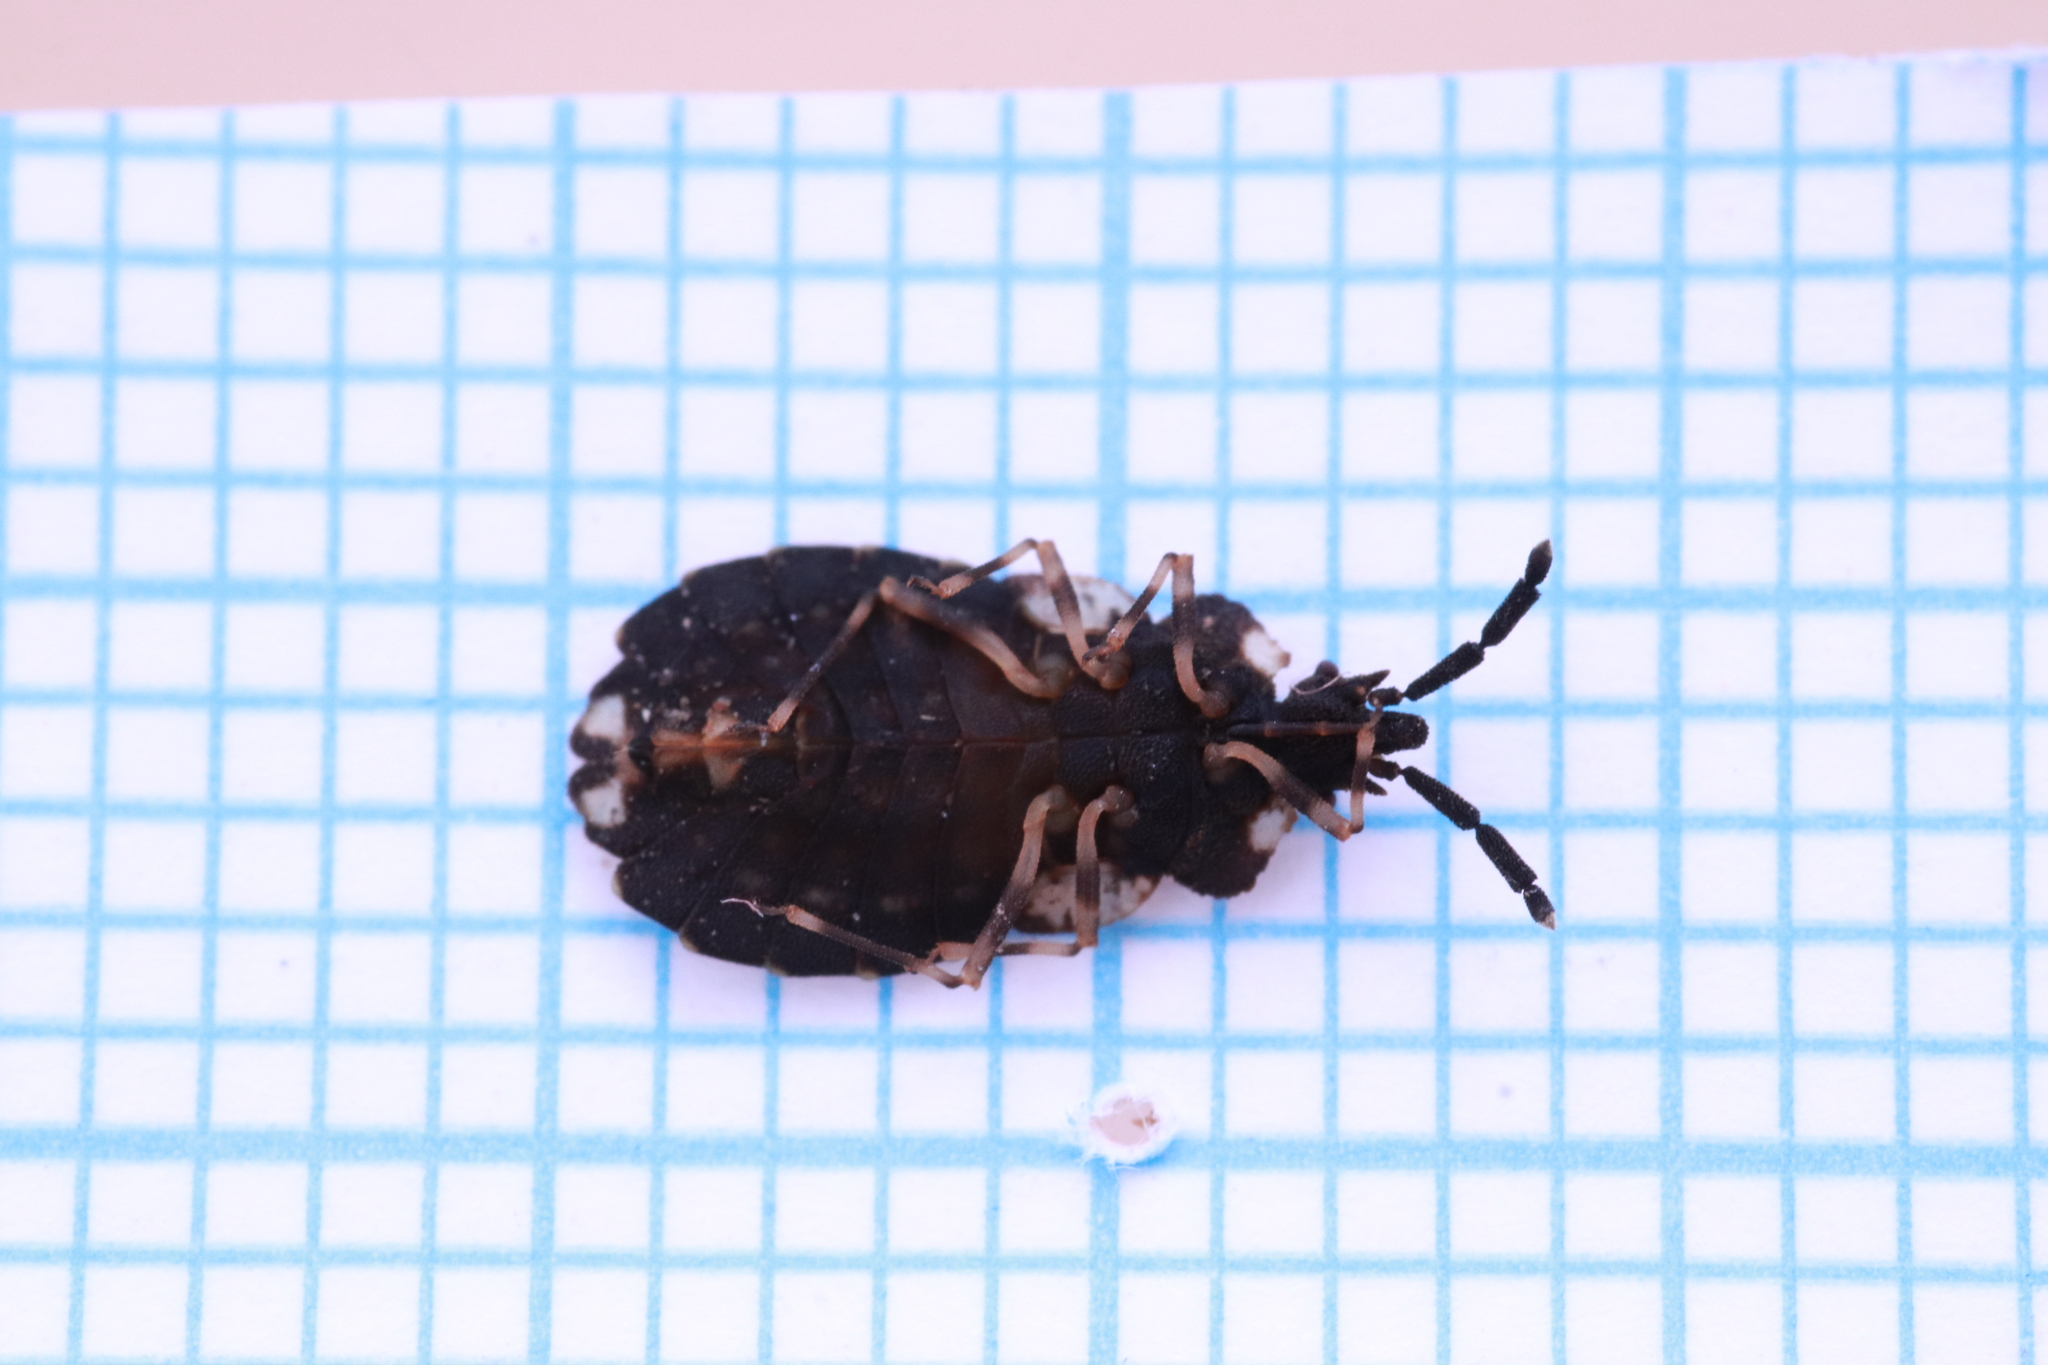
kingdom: Animalia
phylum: Arthropoda
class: Insecta
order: Hemiptera
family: Aradidae
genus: Aradus
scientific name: Aradus somcheticus
